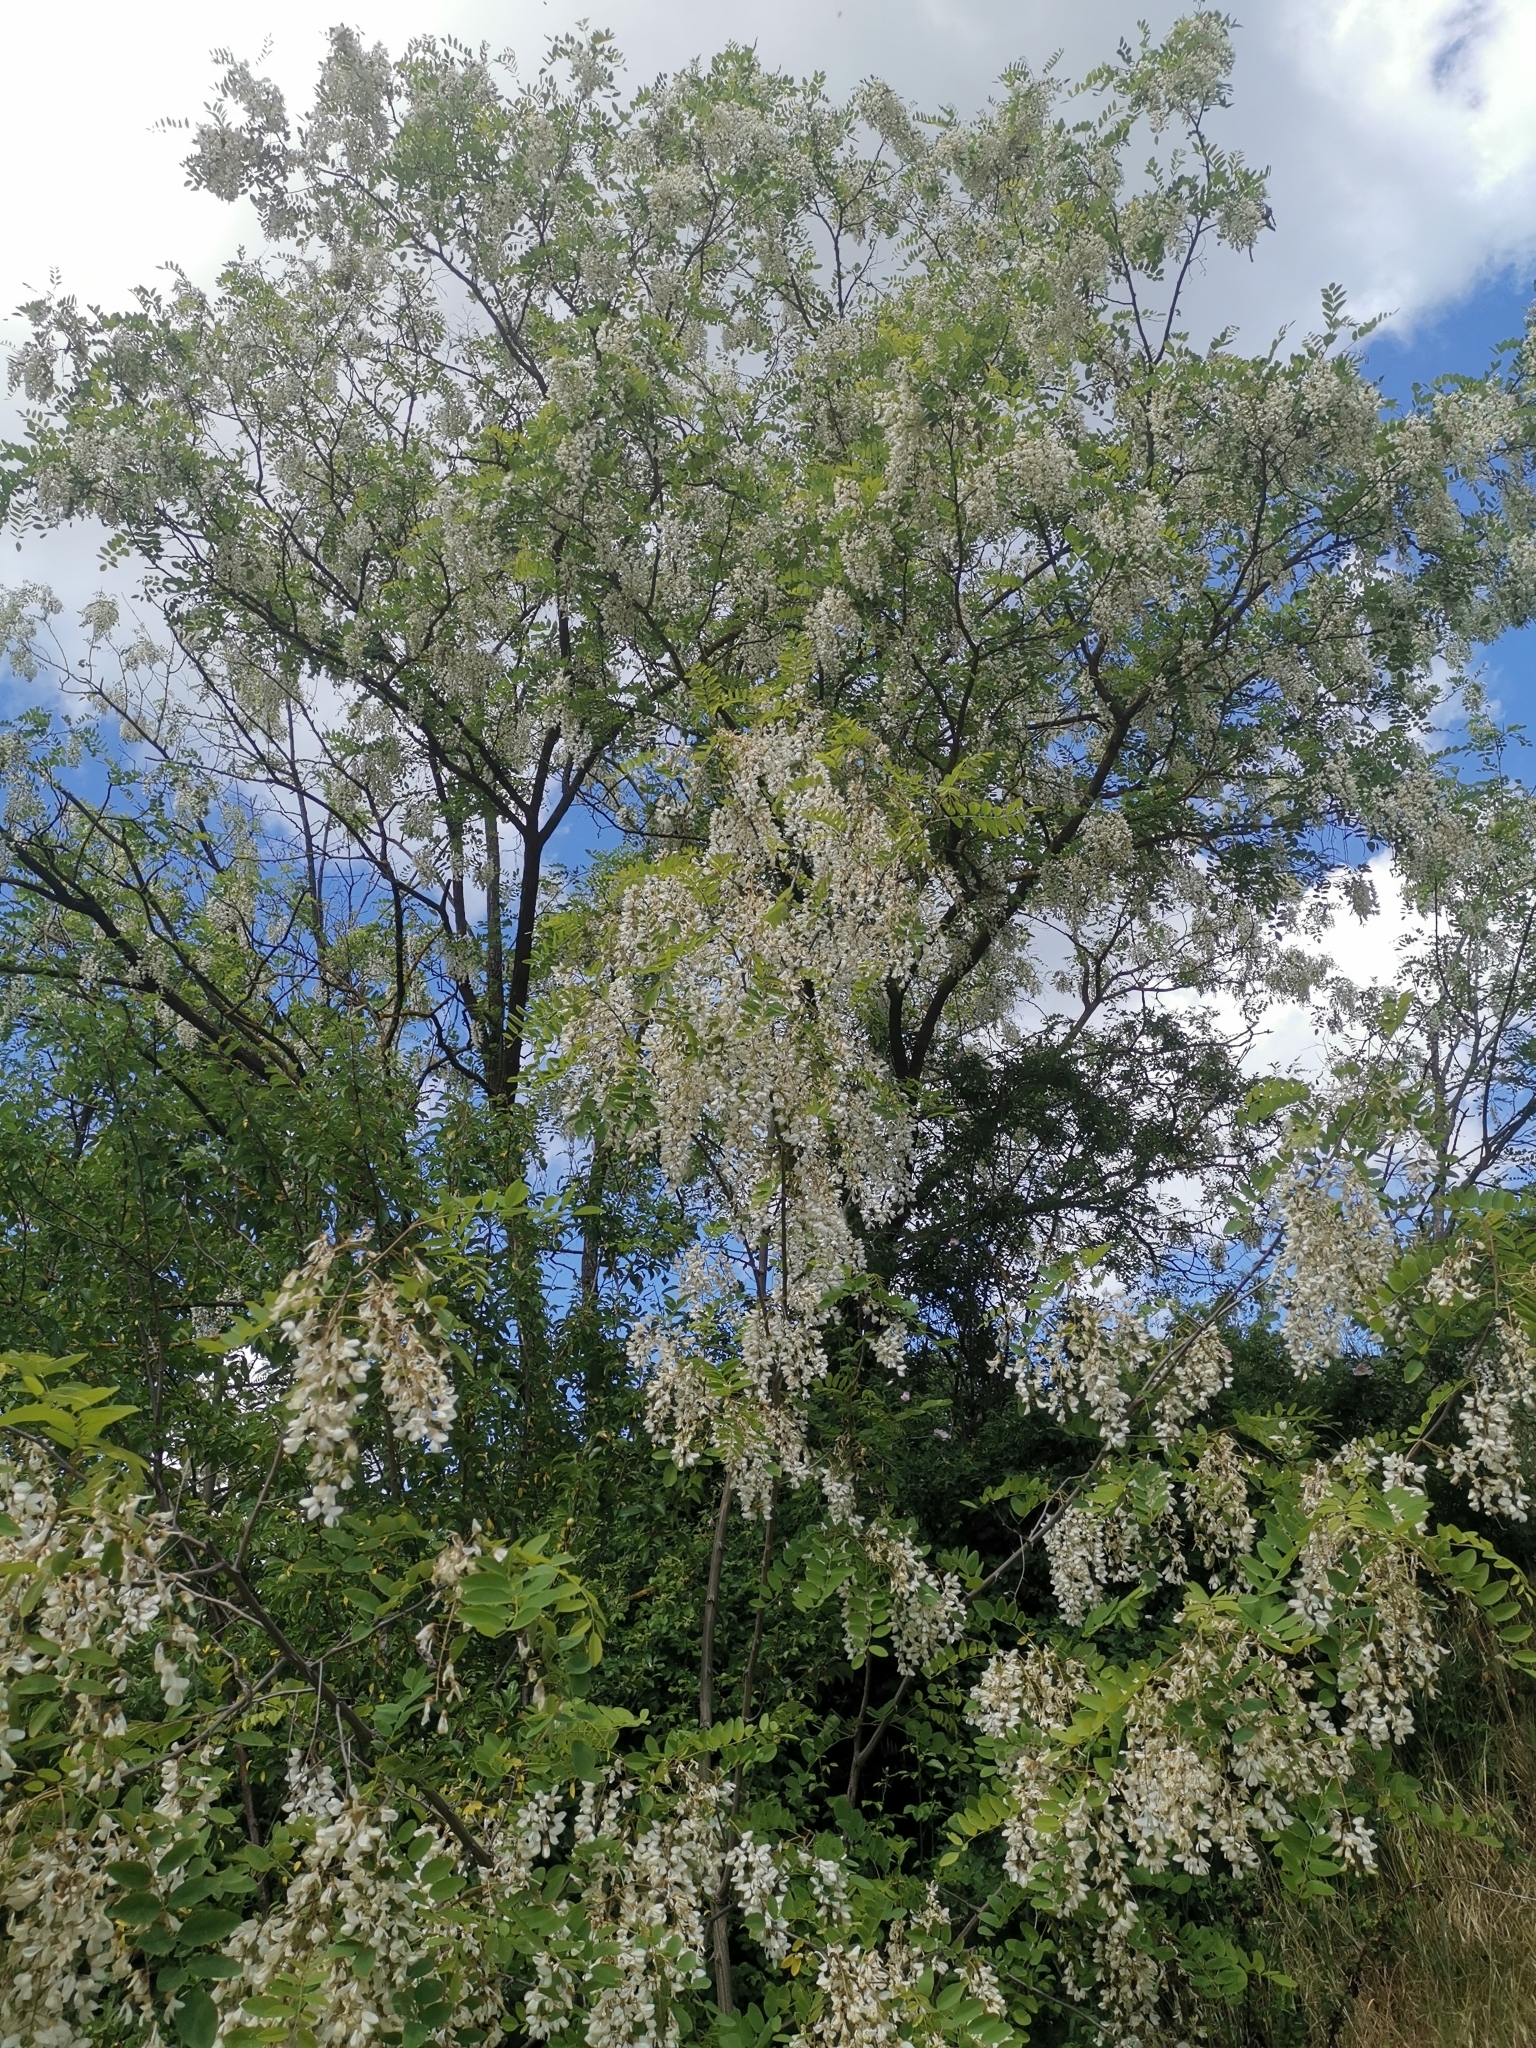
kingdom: Plantae
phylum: Tracheophyta
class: Magnoliopsida
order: Fabales
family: Fabaceae
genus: Robinia
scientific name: Robinia pseudoacacia
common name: Black locust
